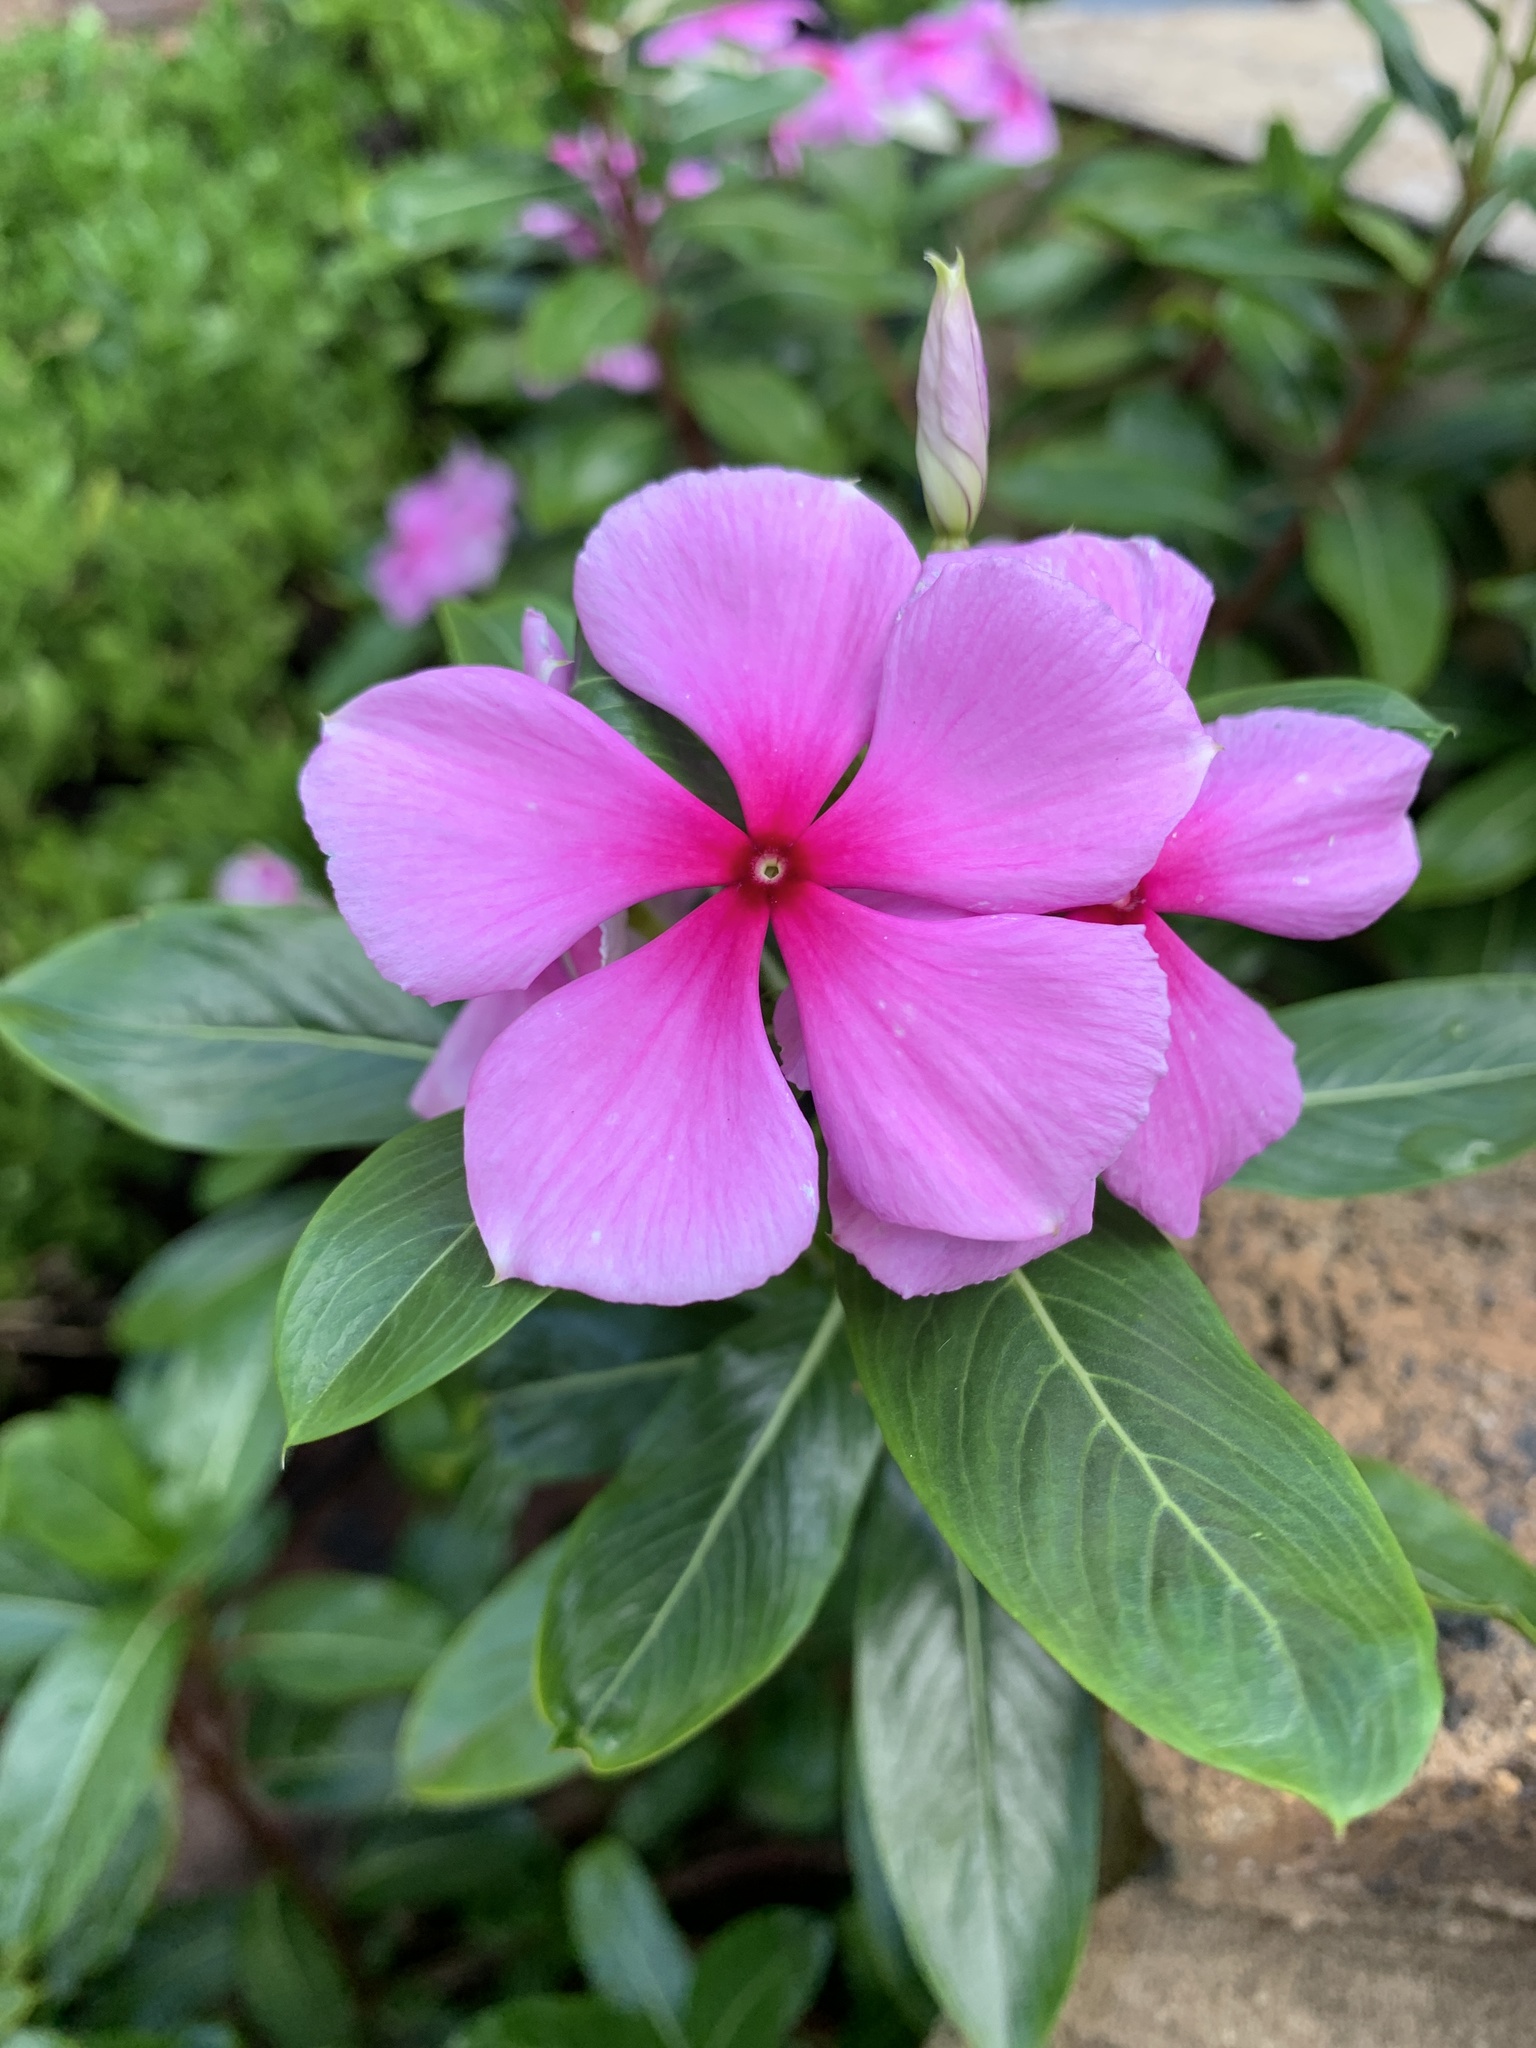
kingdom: Plantae
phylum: Tracheophyta
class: Magnoliopsida
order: Gentianales
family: Apocynaceae
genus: Catharanthus
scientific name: Catharanthus roseus
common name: Madagascar periwinkle
